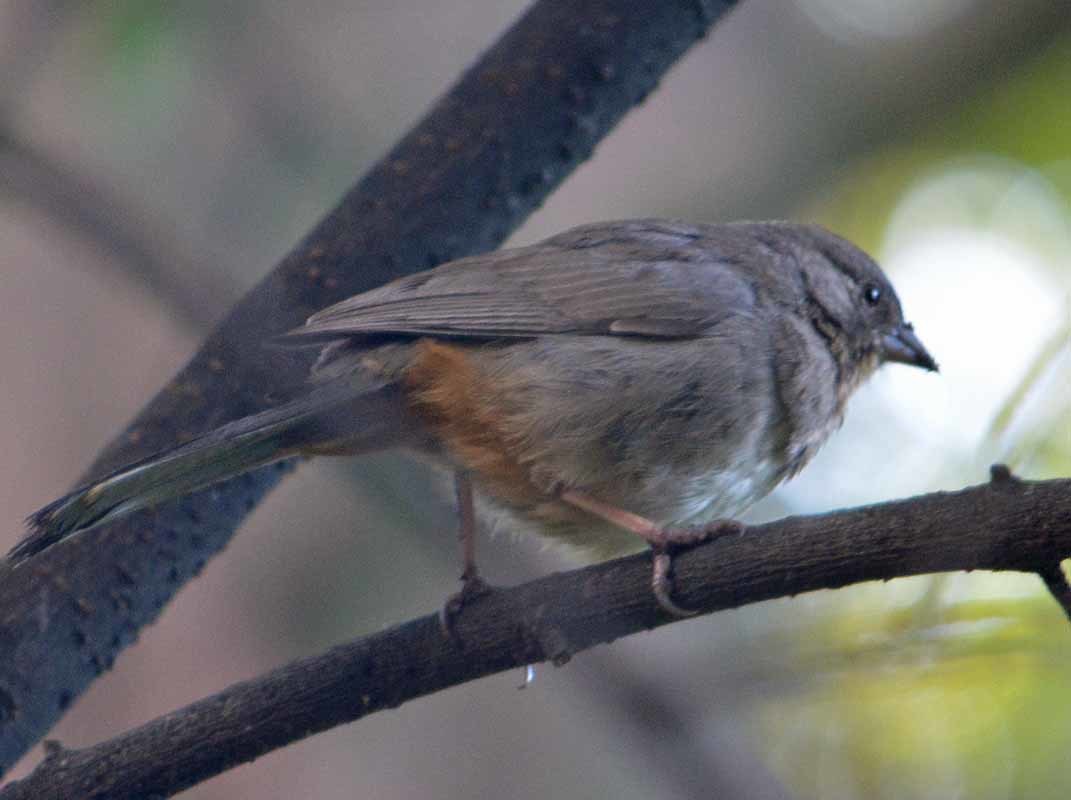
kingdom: Animalia
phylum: Chordata
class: Aves
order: Passeriformes
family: Passerellidae
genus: Melozone
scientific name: Melozone fusca
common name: Canyon towhee
